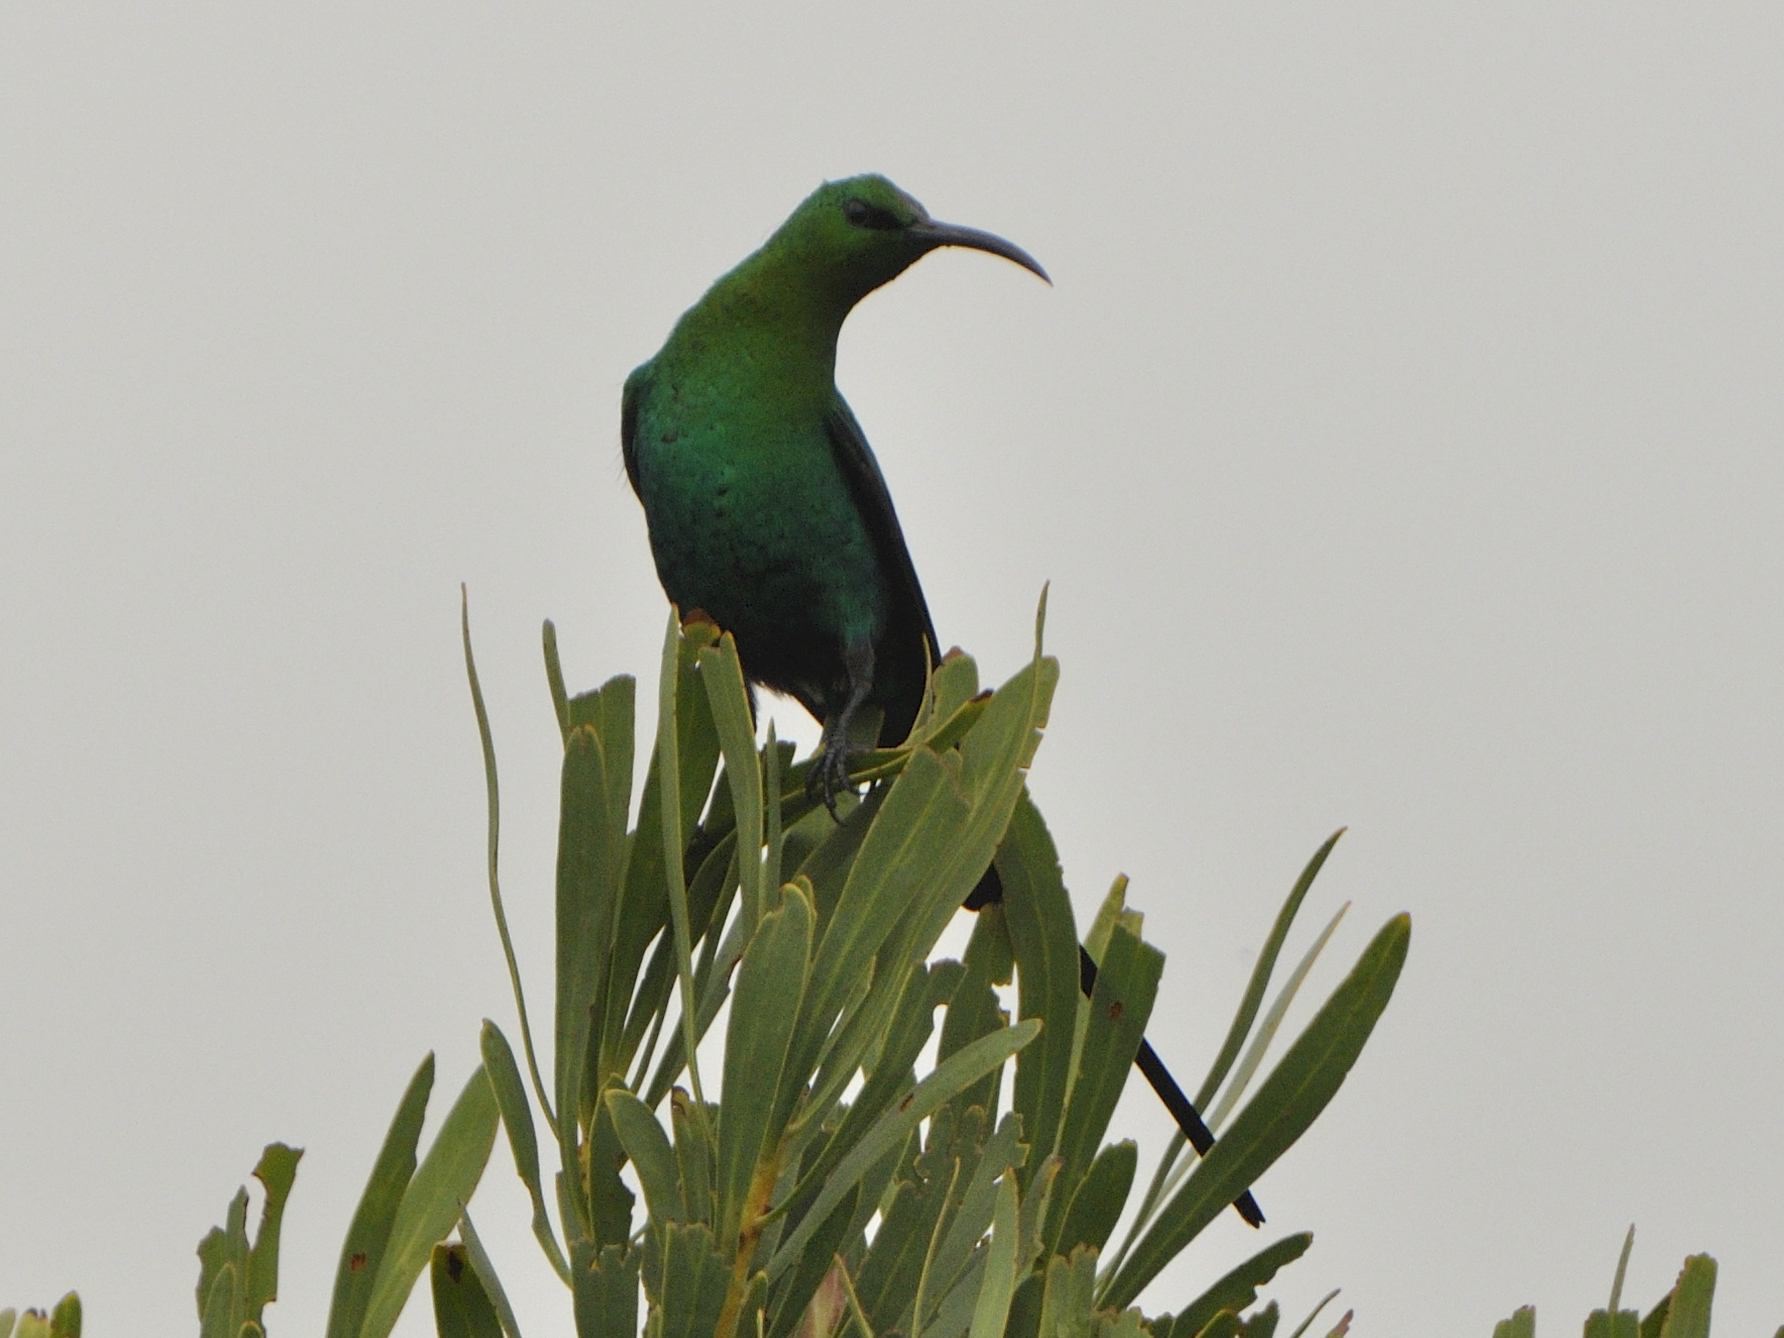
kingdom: Animalia
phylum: Chordata
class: Aves
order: Passeriformes
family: Nectariniidae
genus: Nectarinia
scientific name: Nectarinia famosa
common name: Malachite sunbird
